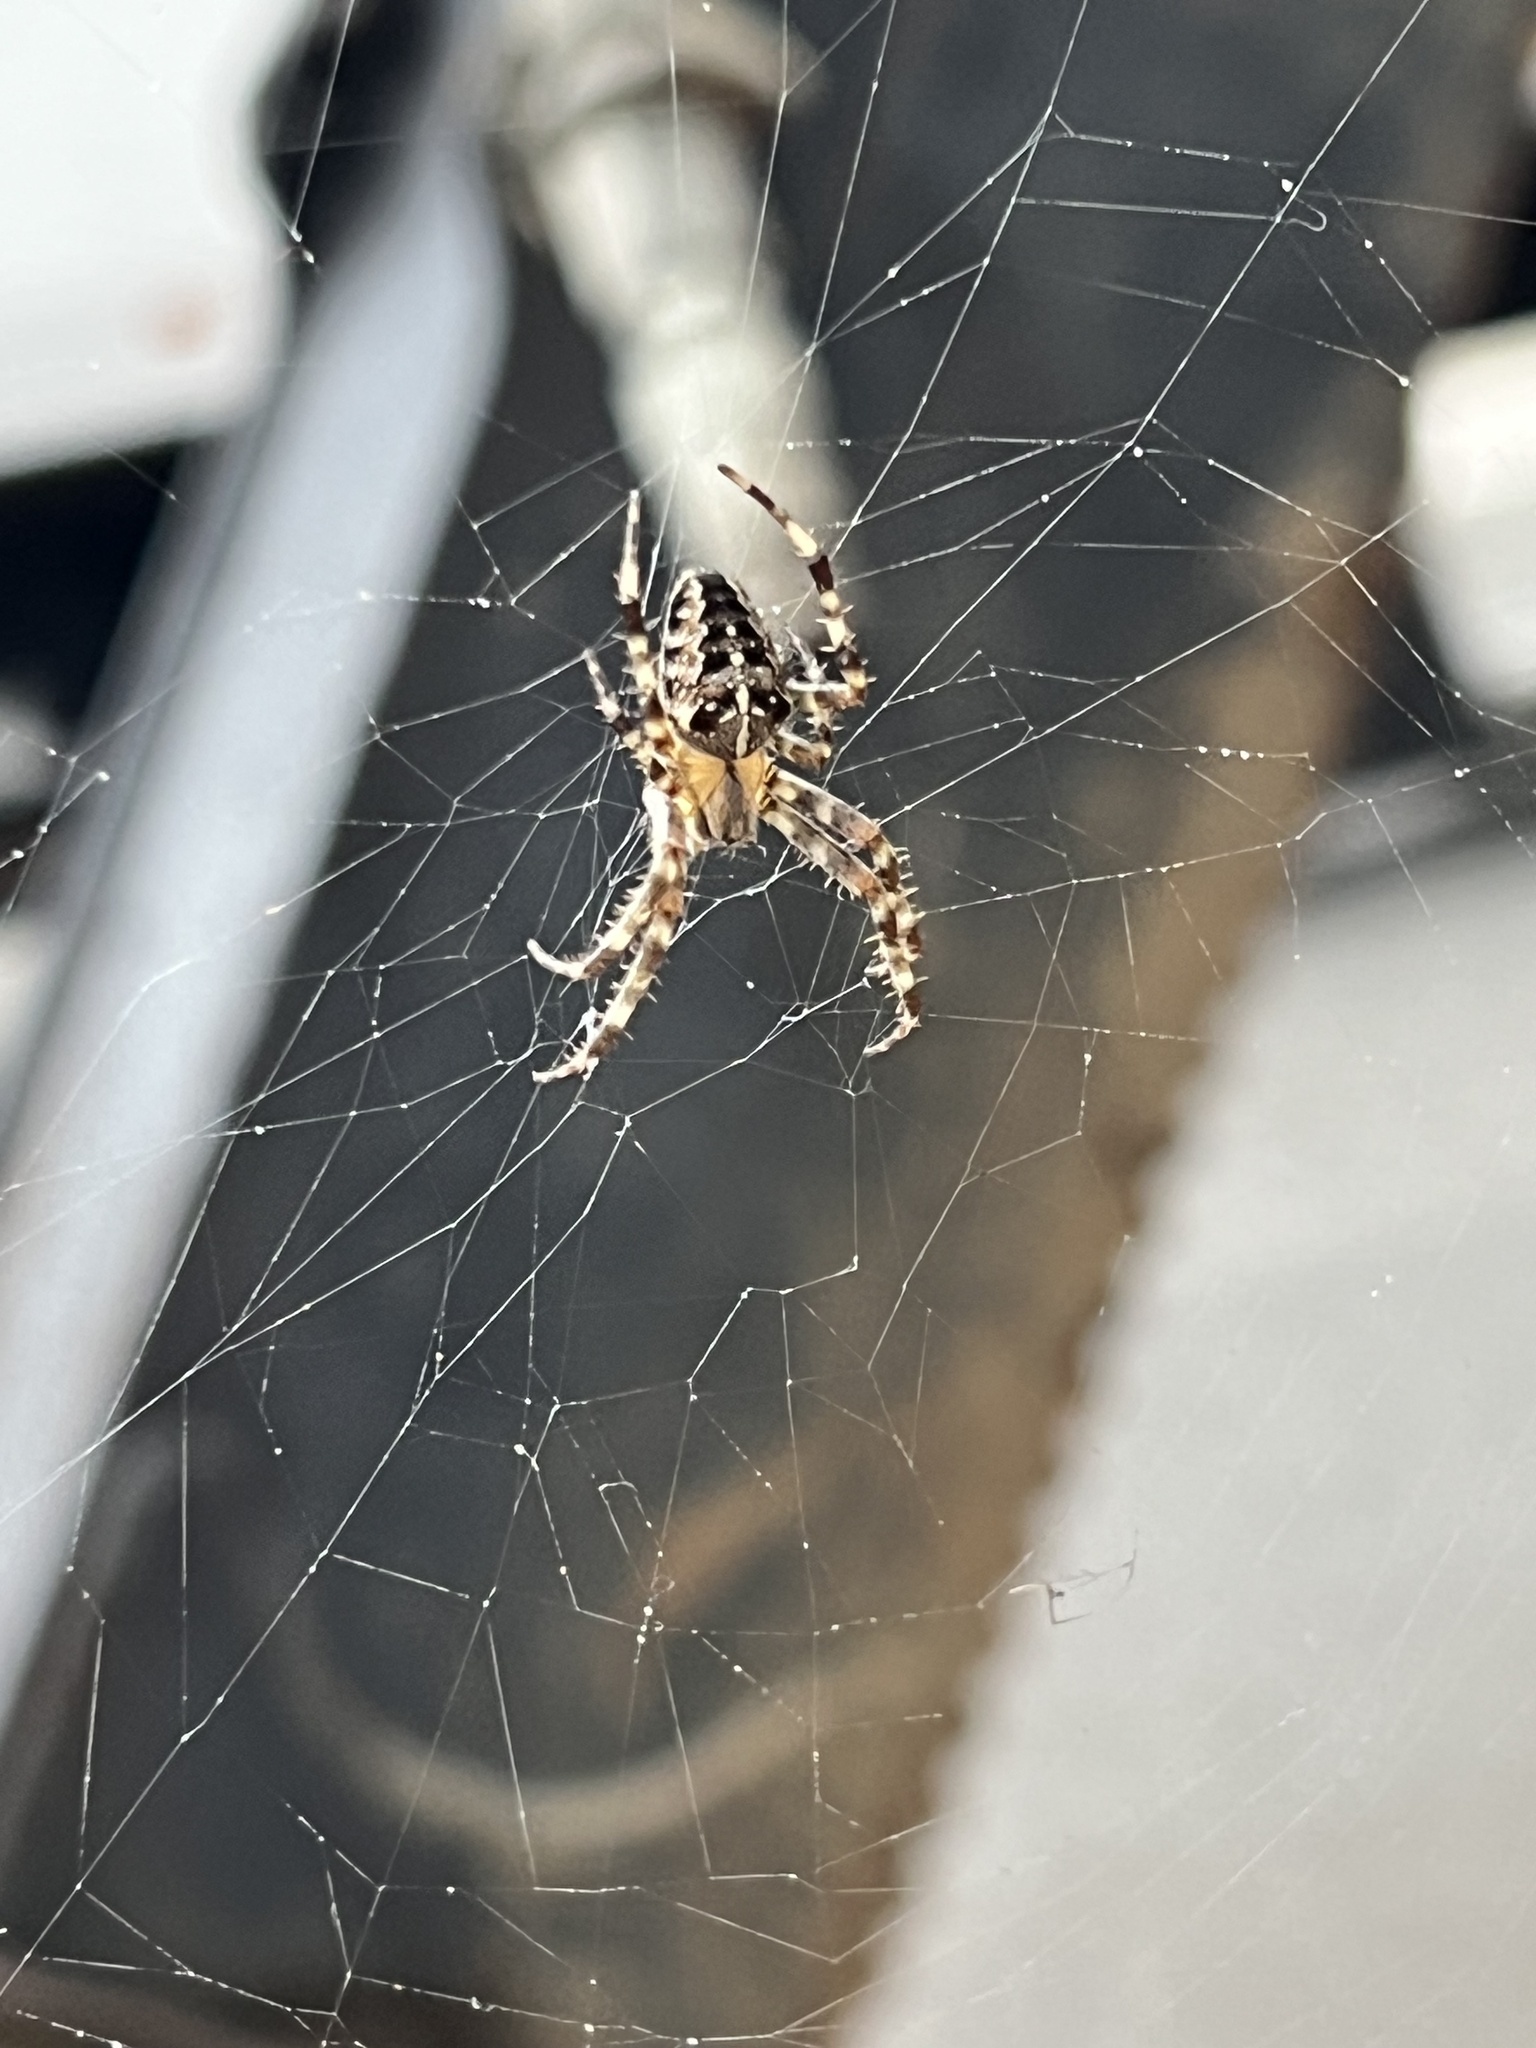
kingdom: Animalia
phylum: Arthropoda
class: Arachnida
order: Araneae
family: Araneidae
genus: Araneus
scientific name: Araneus diadematus
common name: Cross orbweaver
